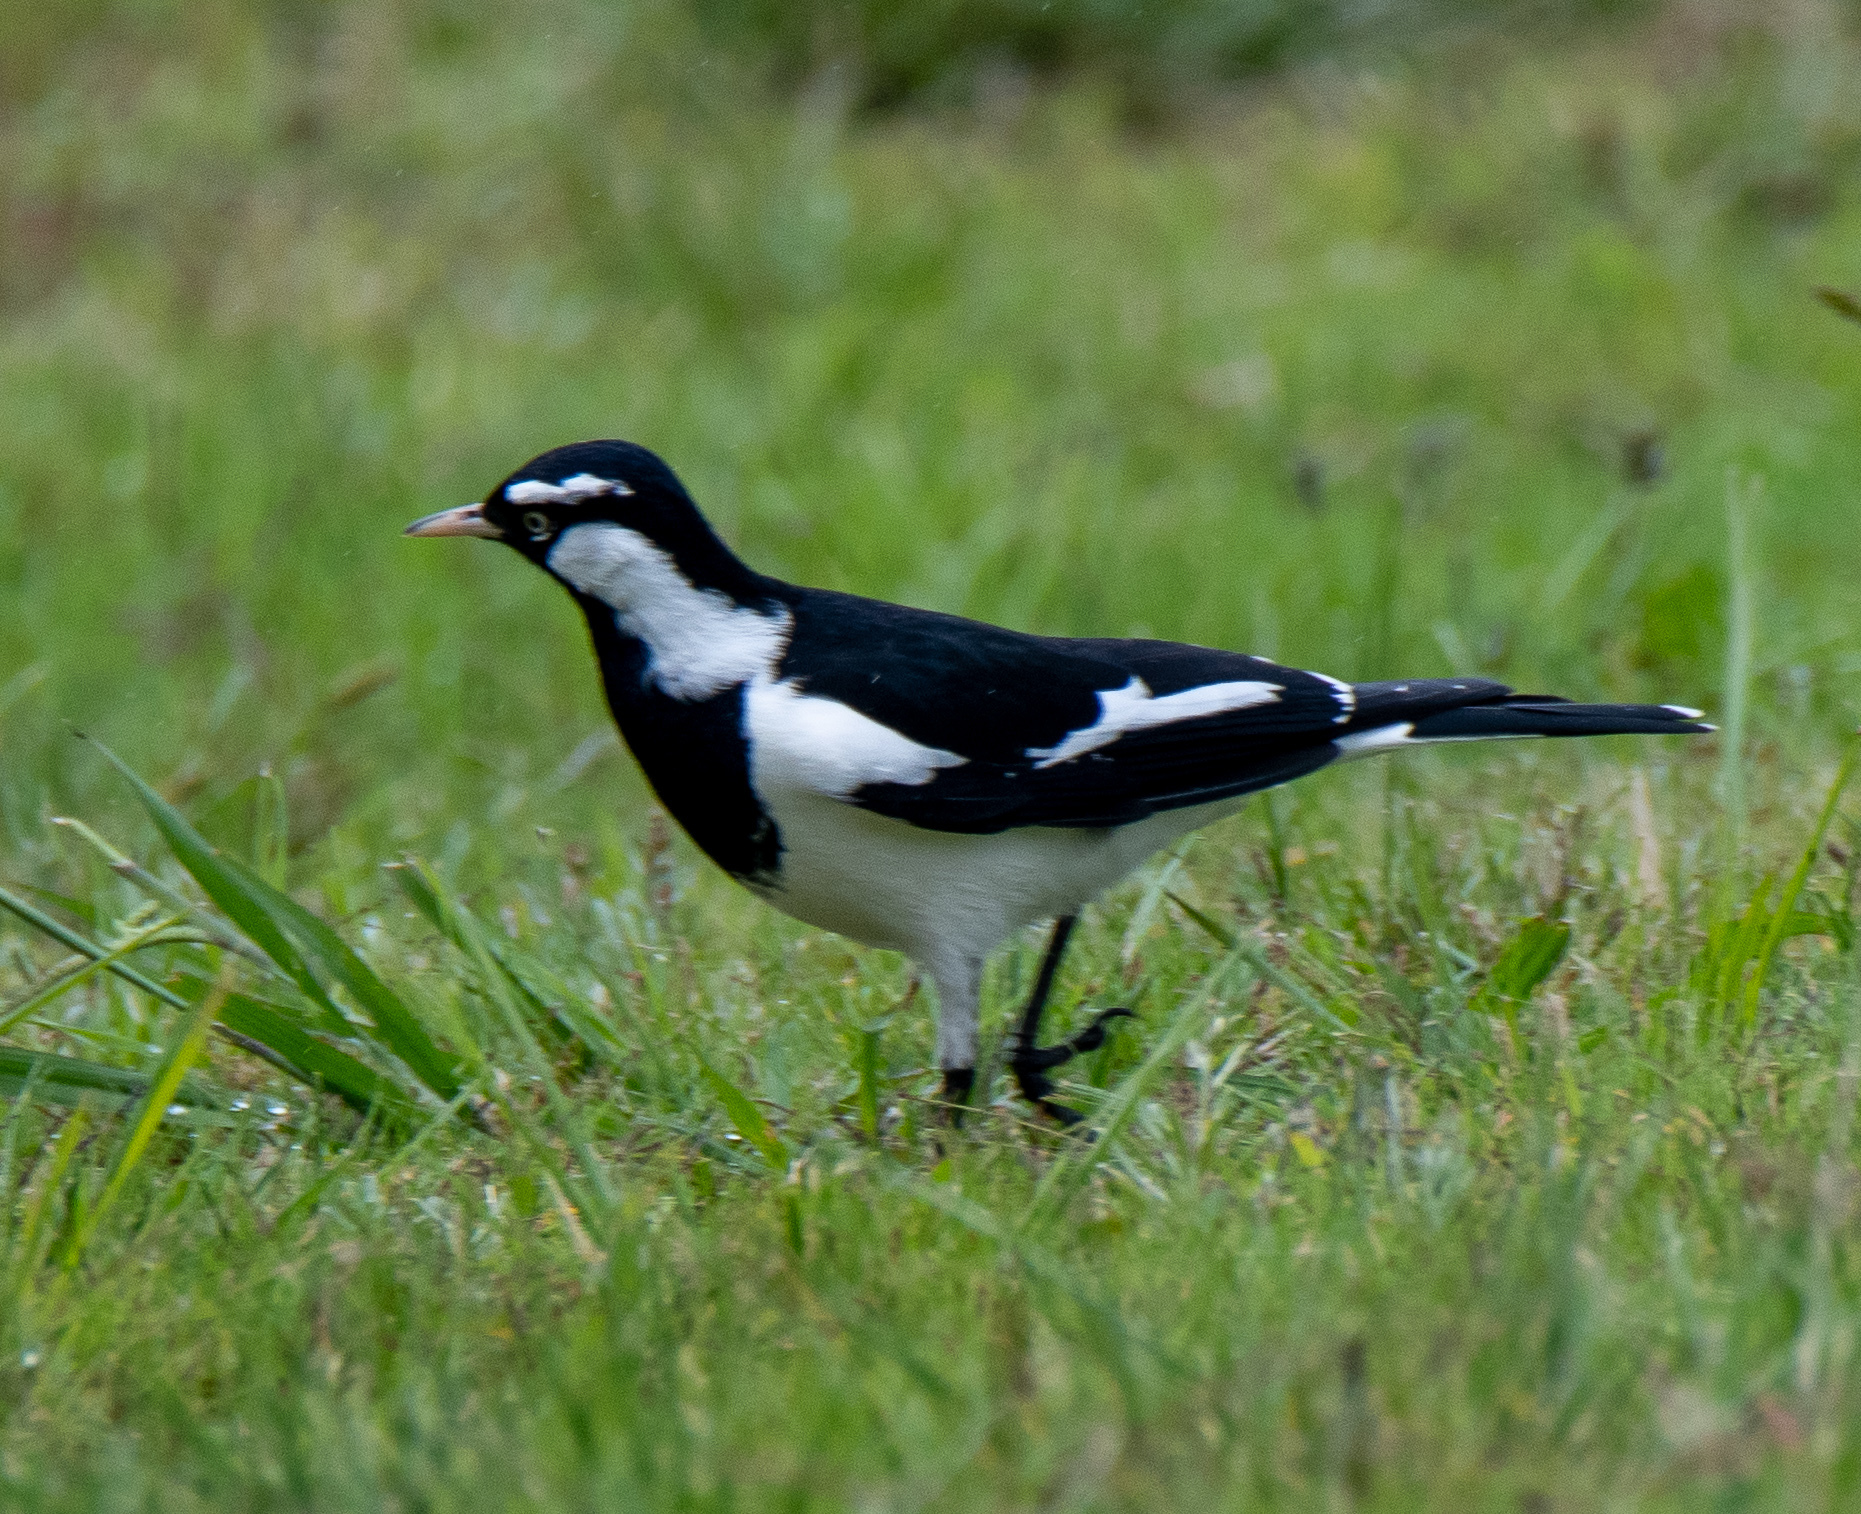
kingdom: Animalia
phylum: Chordata
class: Aves
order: Passeriformes
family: Monarchidae
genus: Grallina
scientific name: Grallina cyanoleuca
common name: Magpie-lark
